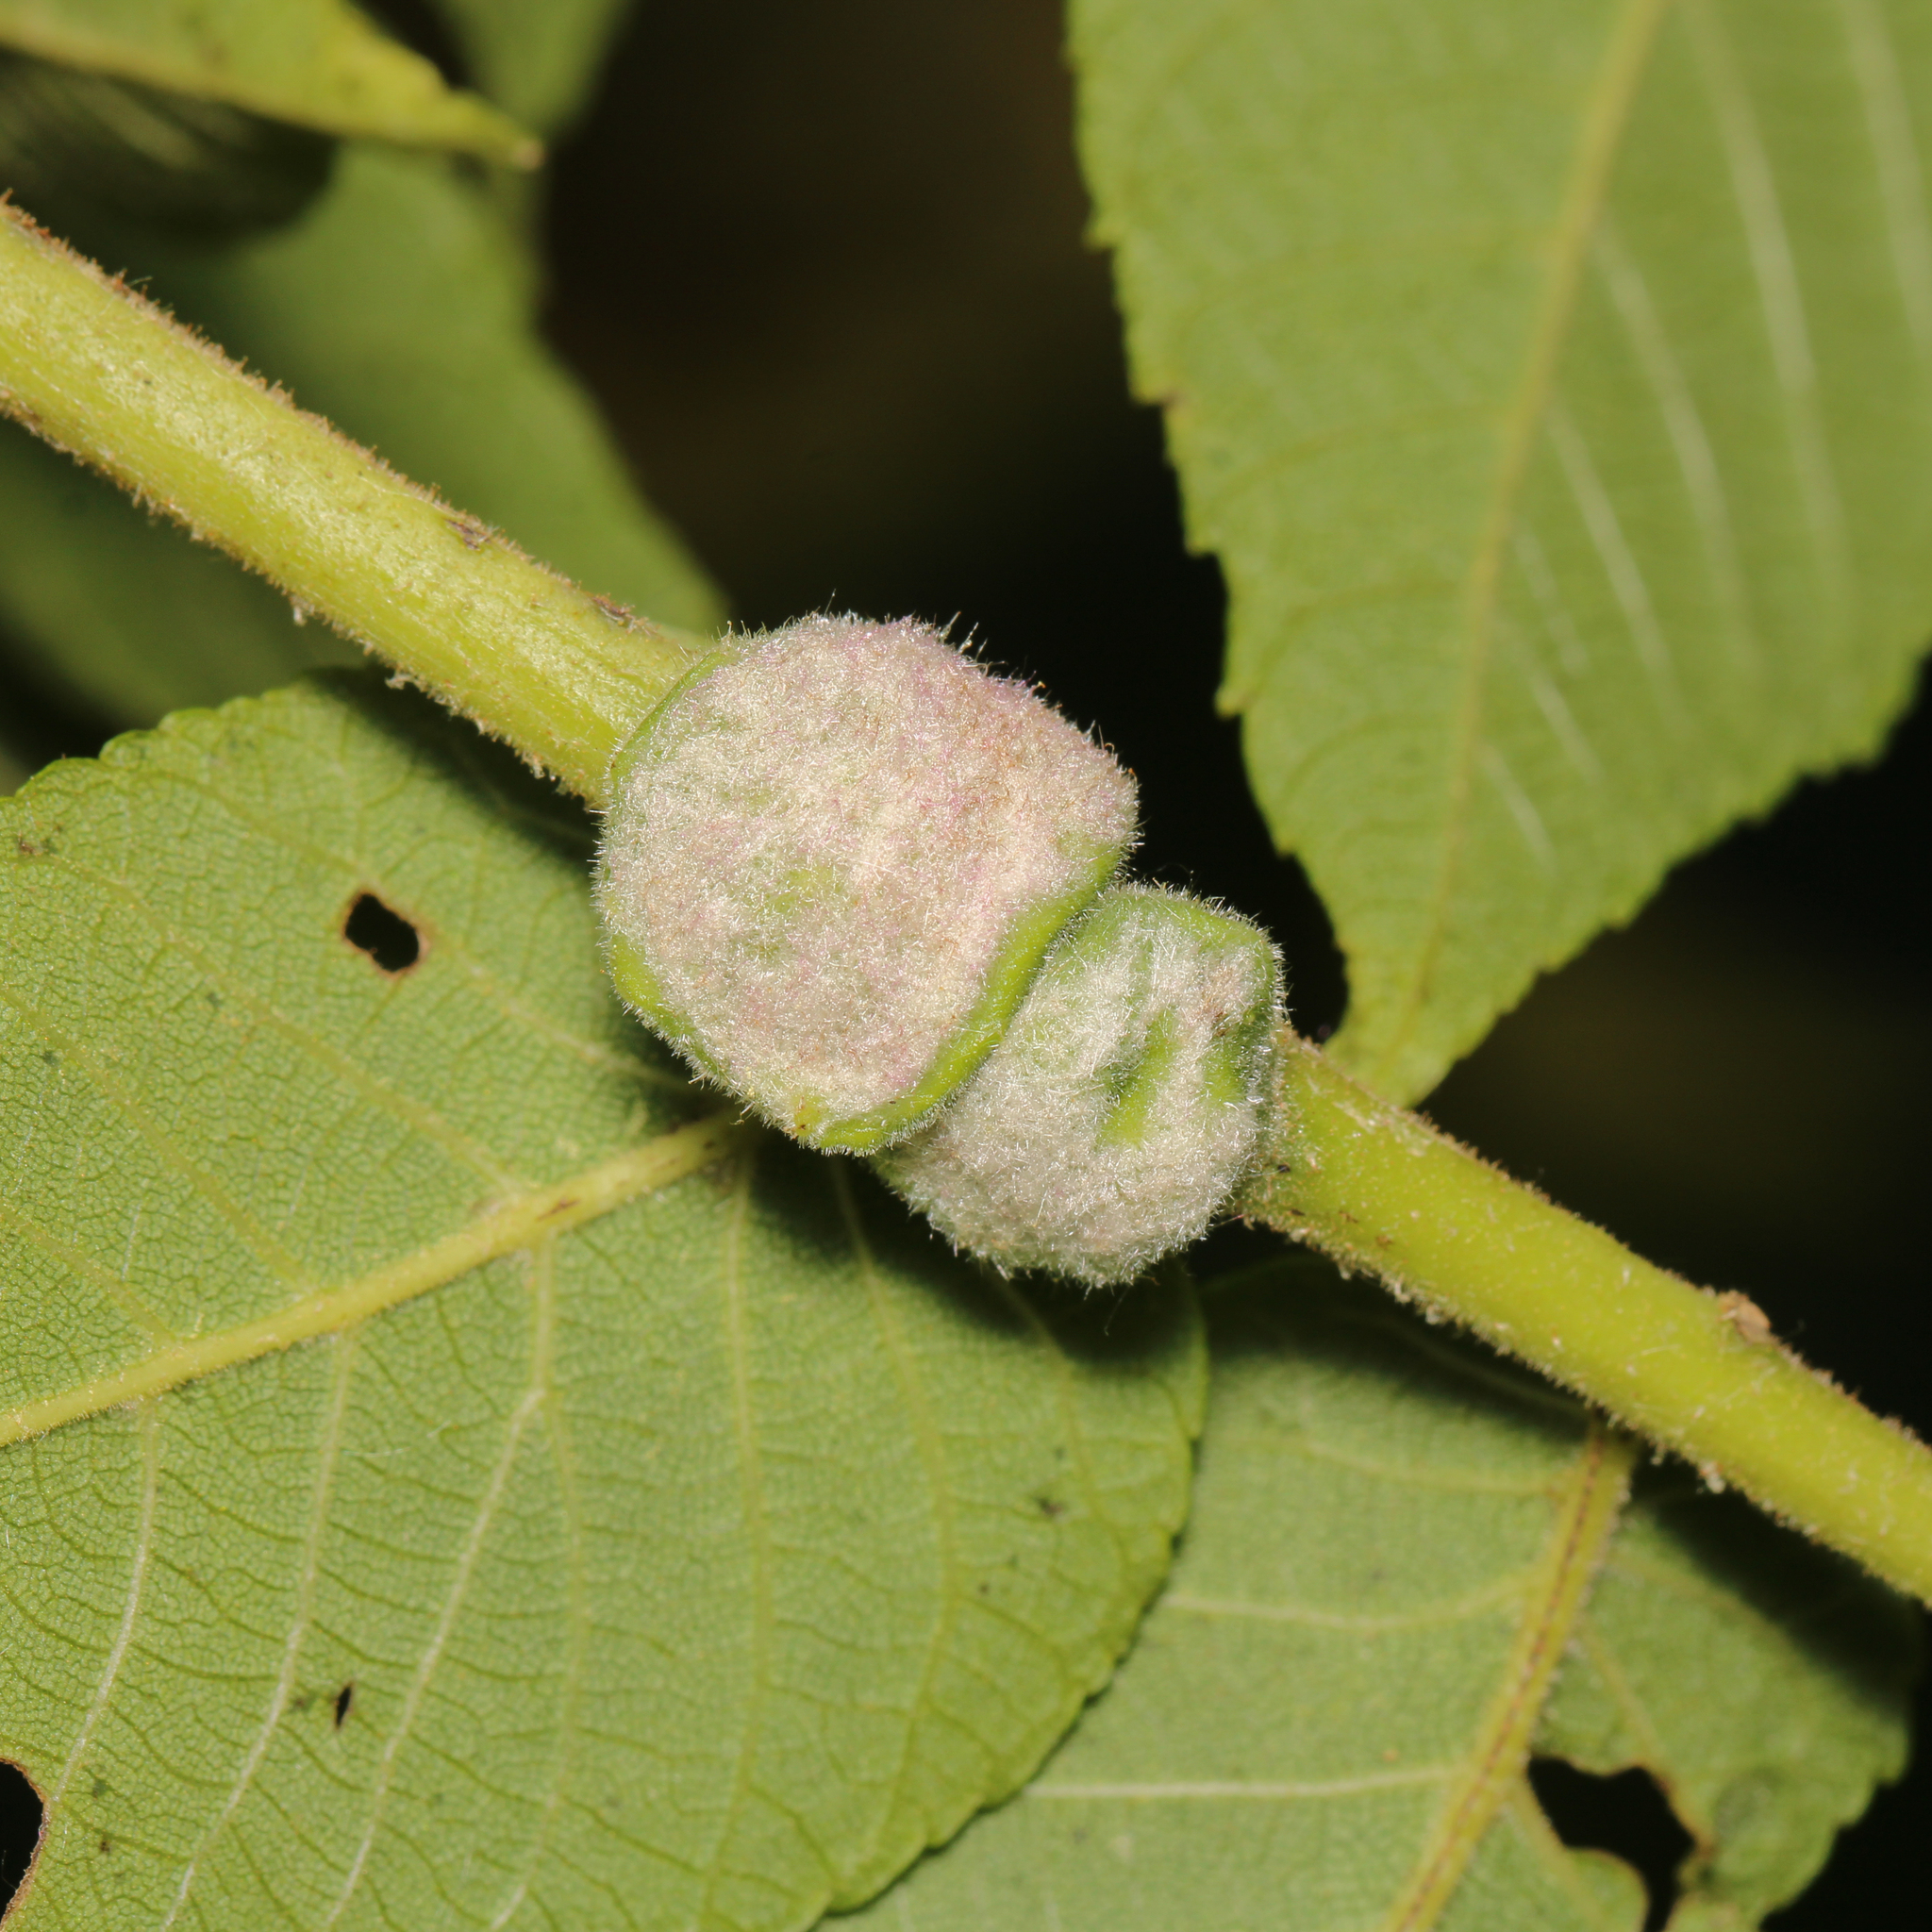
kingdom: Animalia
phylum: Arthropoda
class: Arachnida
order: Trombidiformes
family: Eriophyidae
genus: Aceria
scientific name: Aceria
